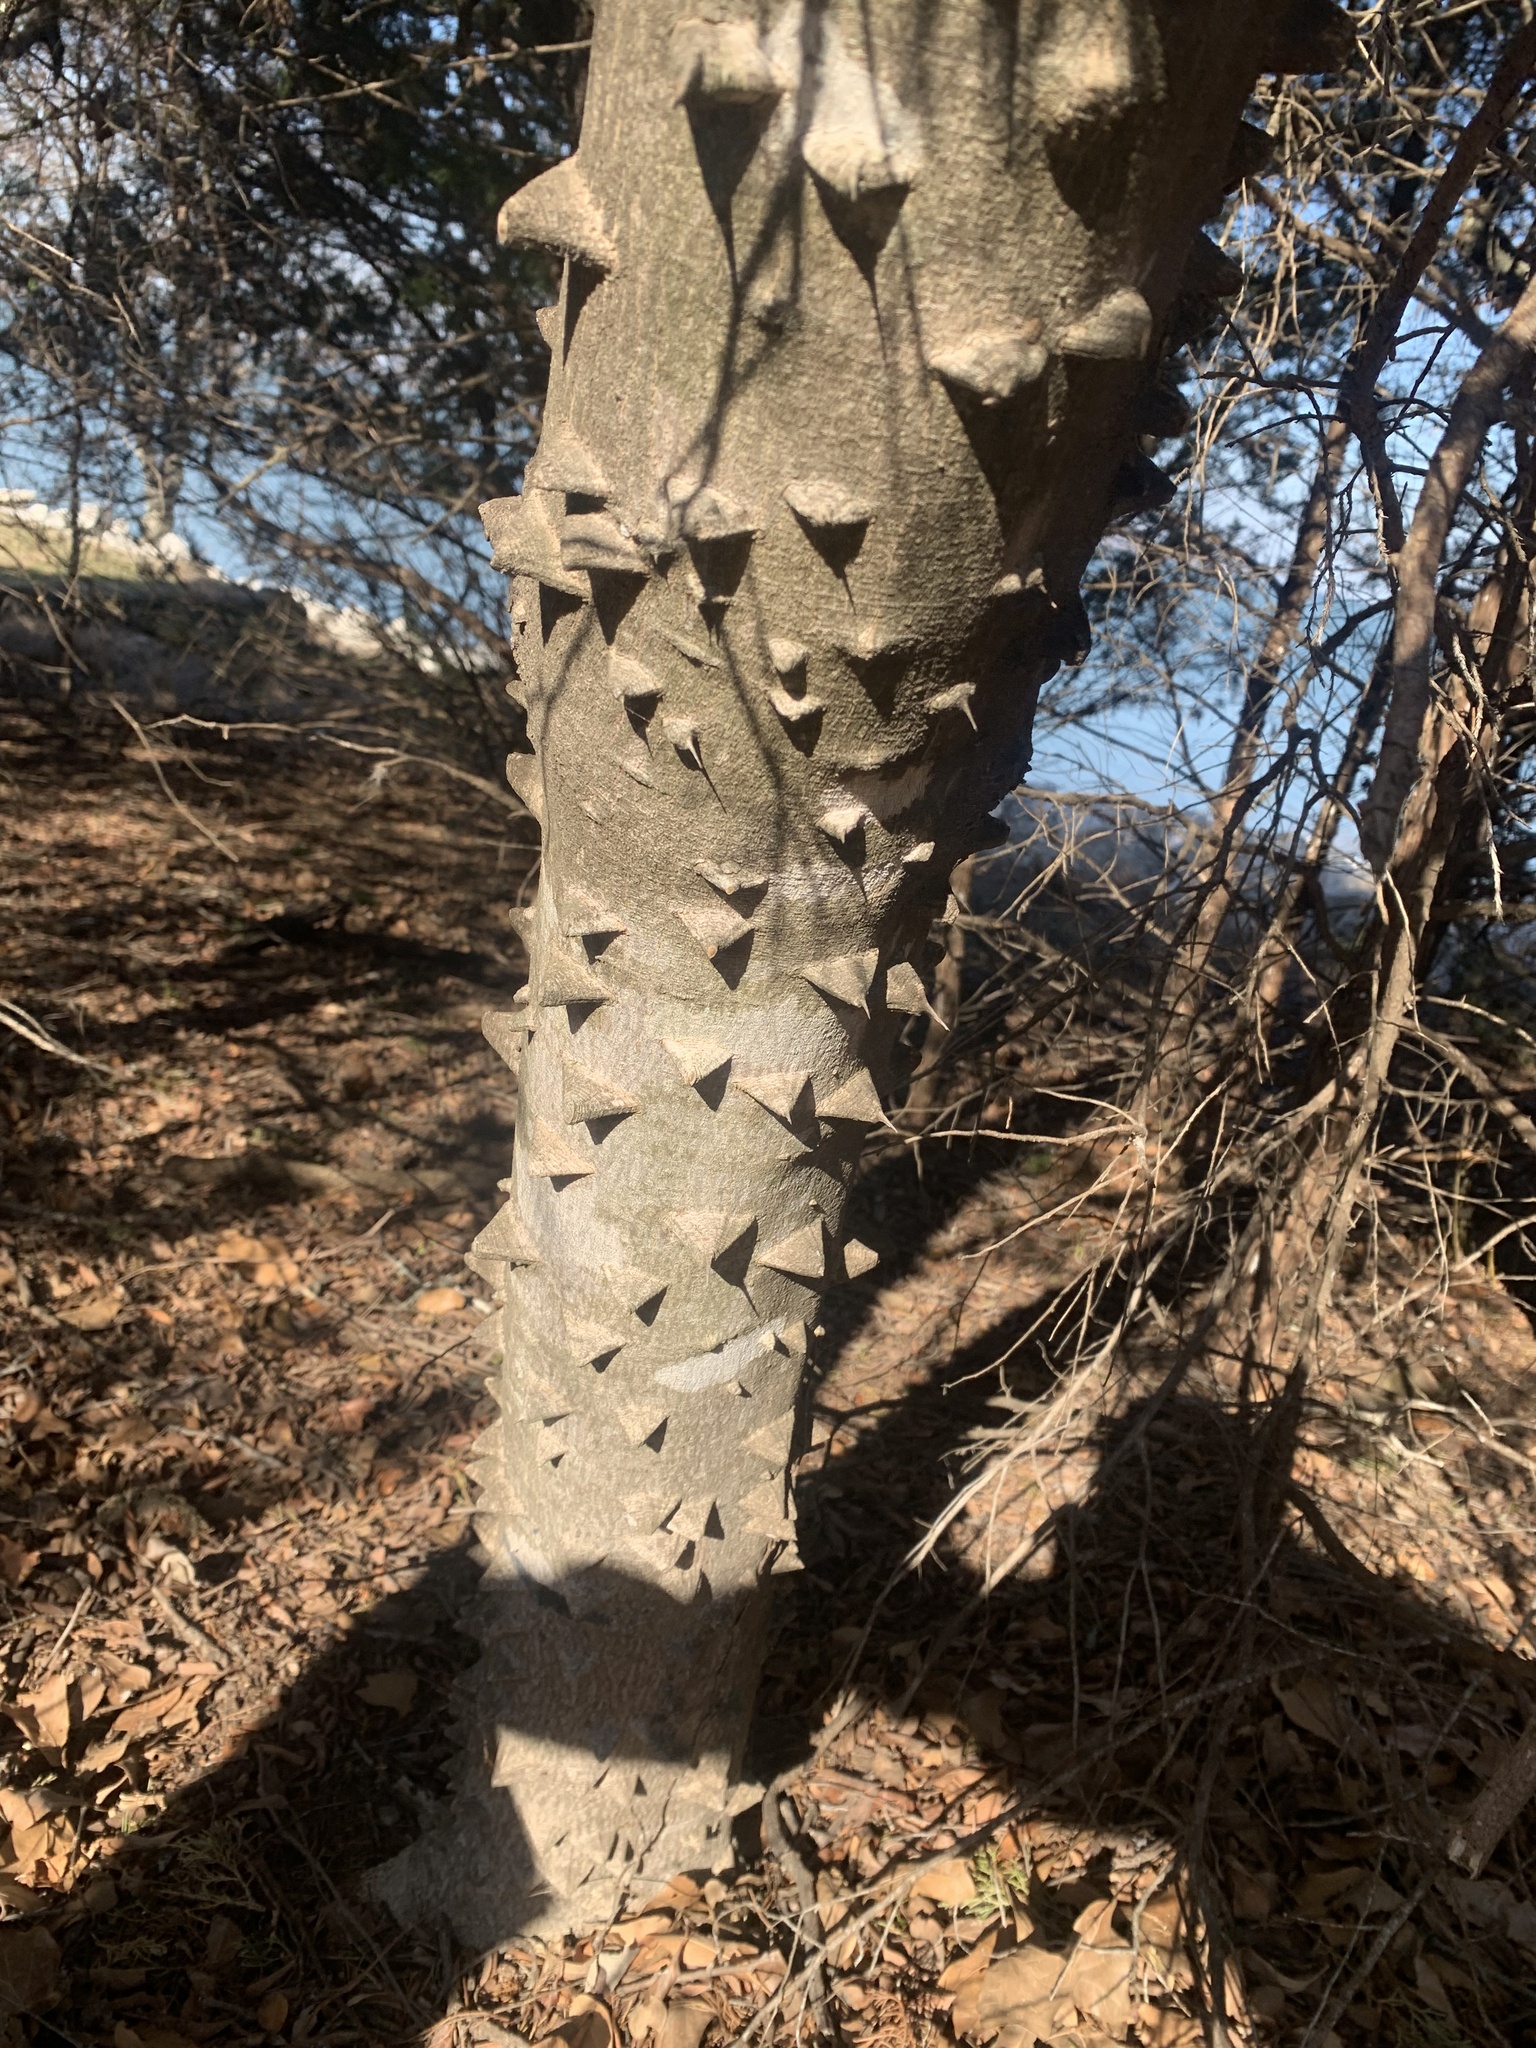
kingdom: Plantae
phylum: Tracheophyta
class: Magnoliopsida
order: Sapindales
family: Rutaceae
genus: Zanthoxylum
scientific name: Zanthoxylum clava-herculis
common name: Hercules'-club
